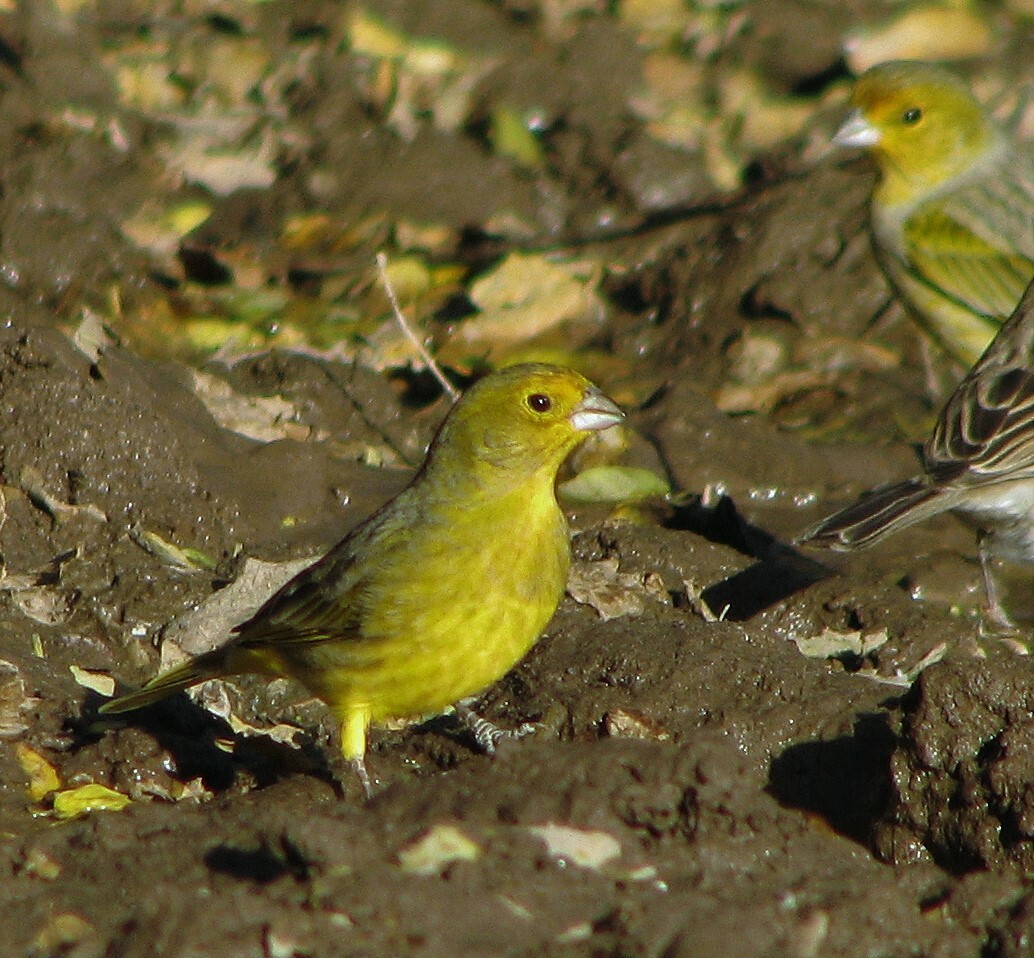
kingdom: Animalia
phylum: Chordata
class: Aves
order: Passeriformes
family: Thraupidae
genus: Sicalis
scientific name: Sicalis flaveola
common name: Saffron finch
